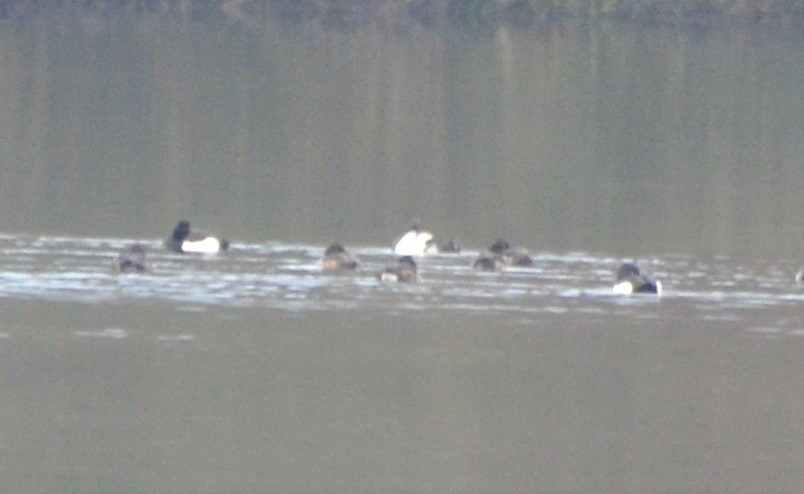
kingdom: Animalia
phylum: Chordata
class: Aves
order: Anseriformes
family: Anatidae
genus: Aythya
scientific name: Aythya fuligula
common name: Tufted duck
